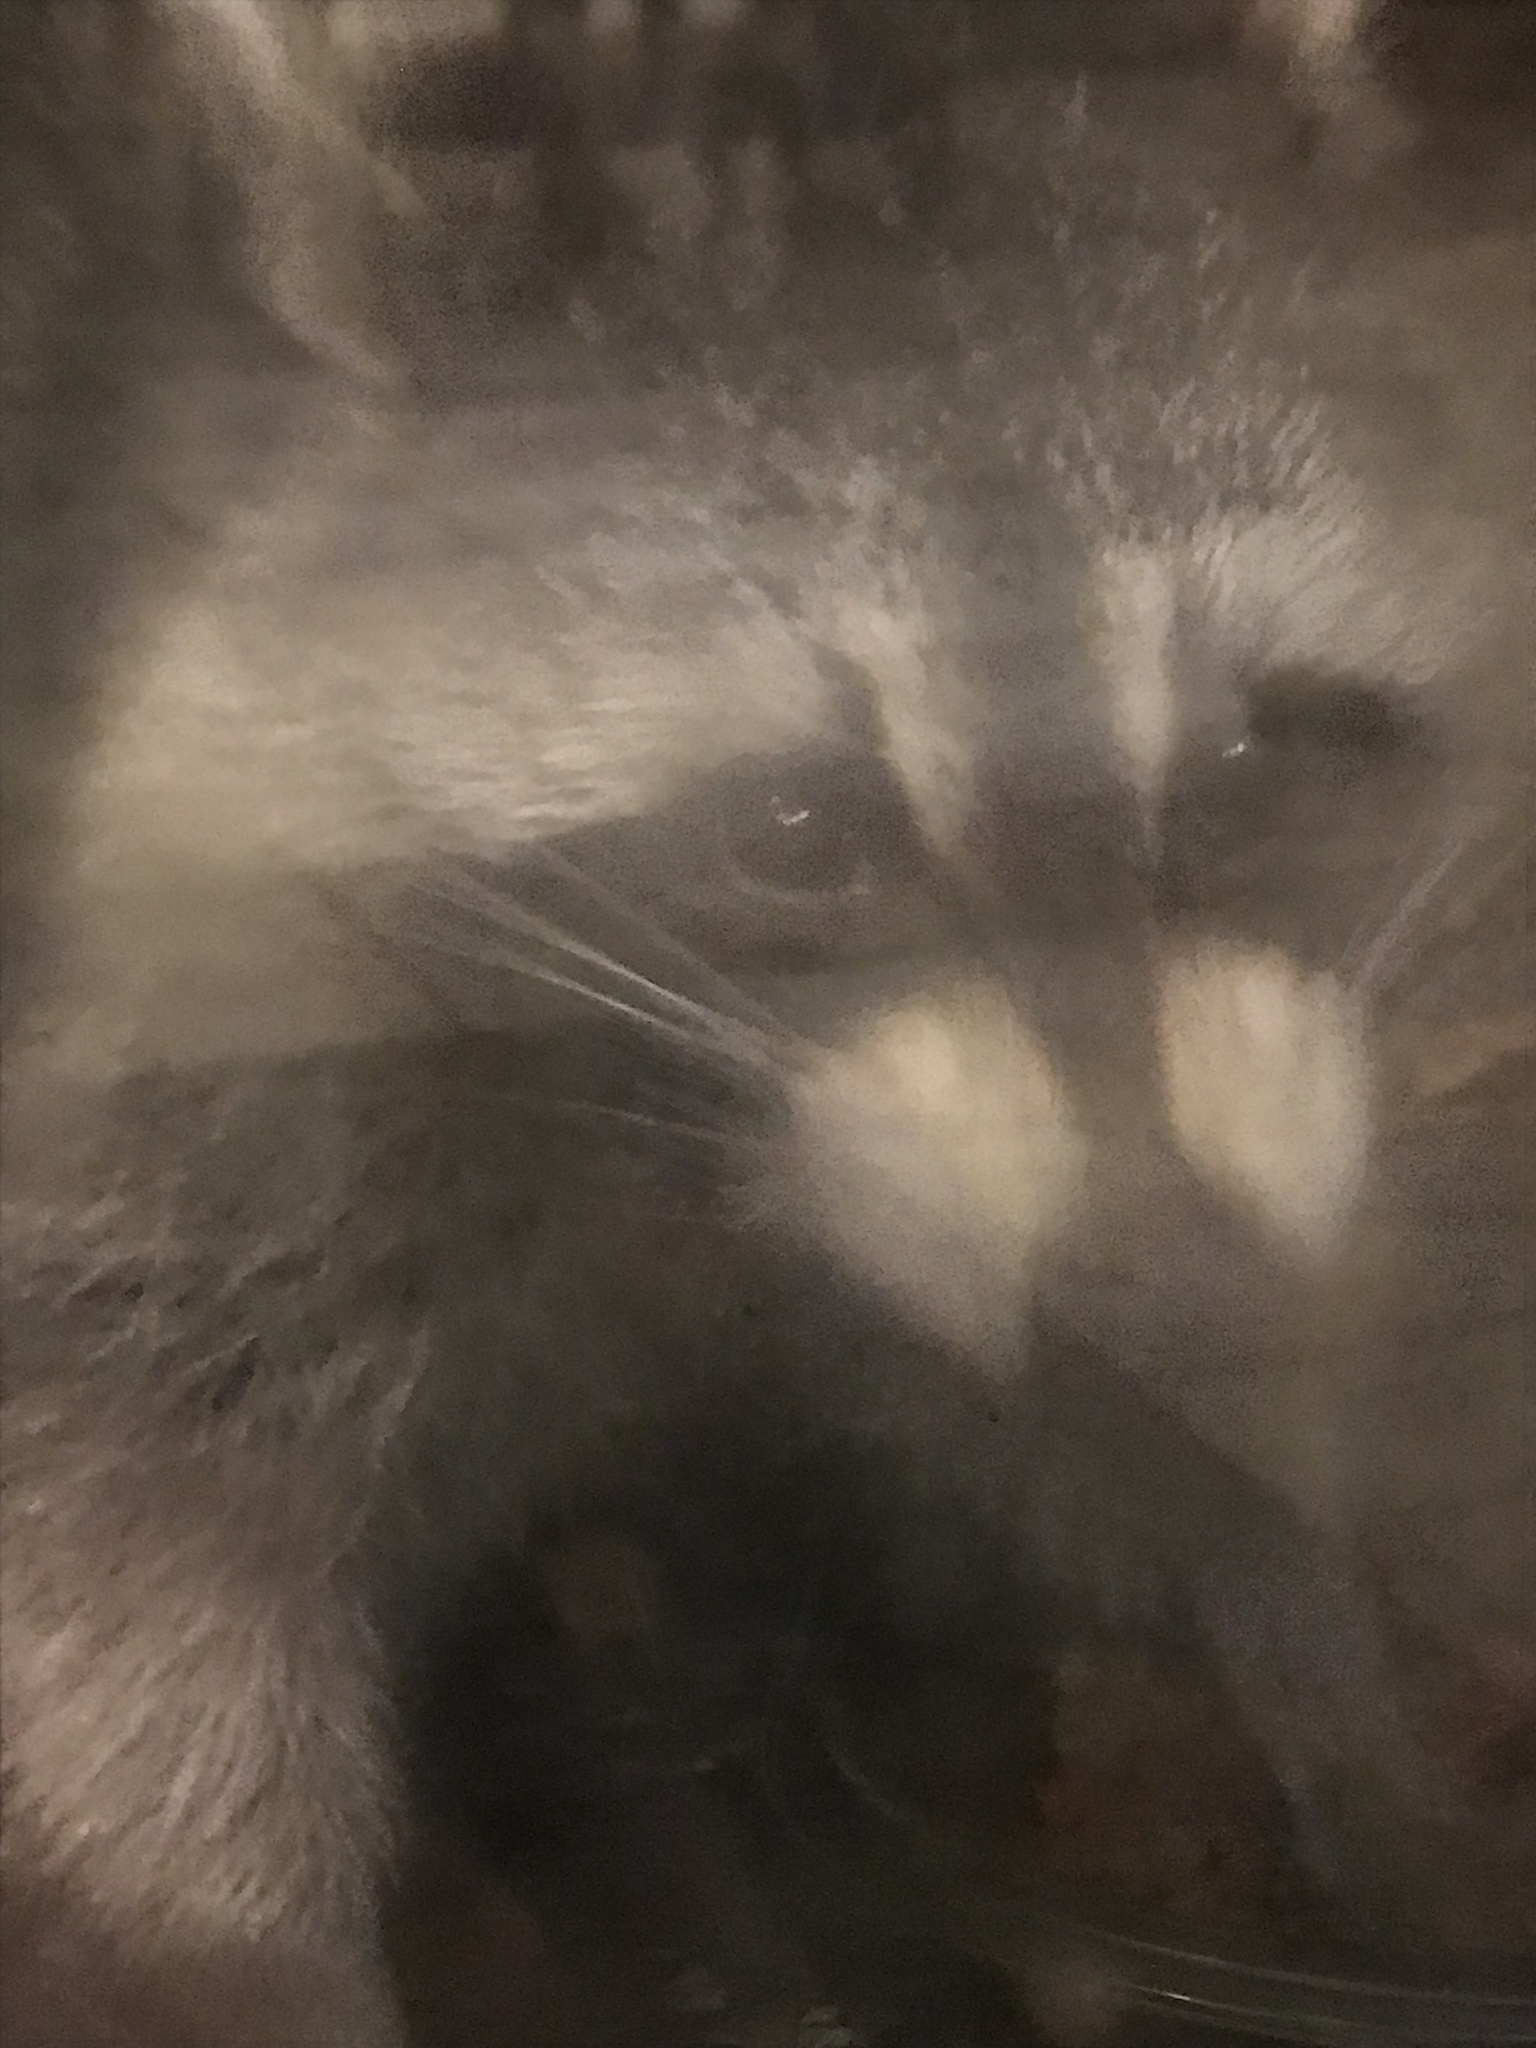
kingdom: Animalia
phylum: Chordata
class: Mammalia
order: Carnivora
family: Procyonidae
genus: Procyon
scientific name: Procyon lotor
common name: Raccoon
